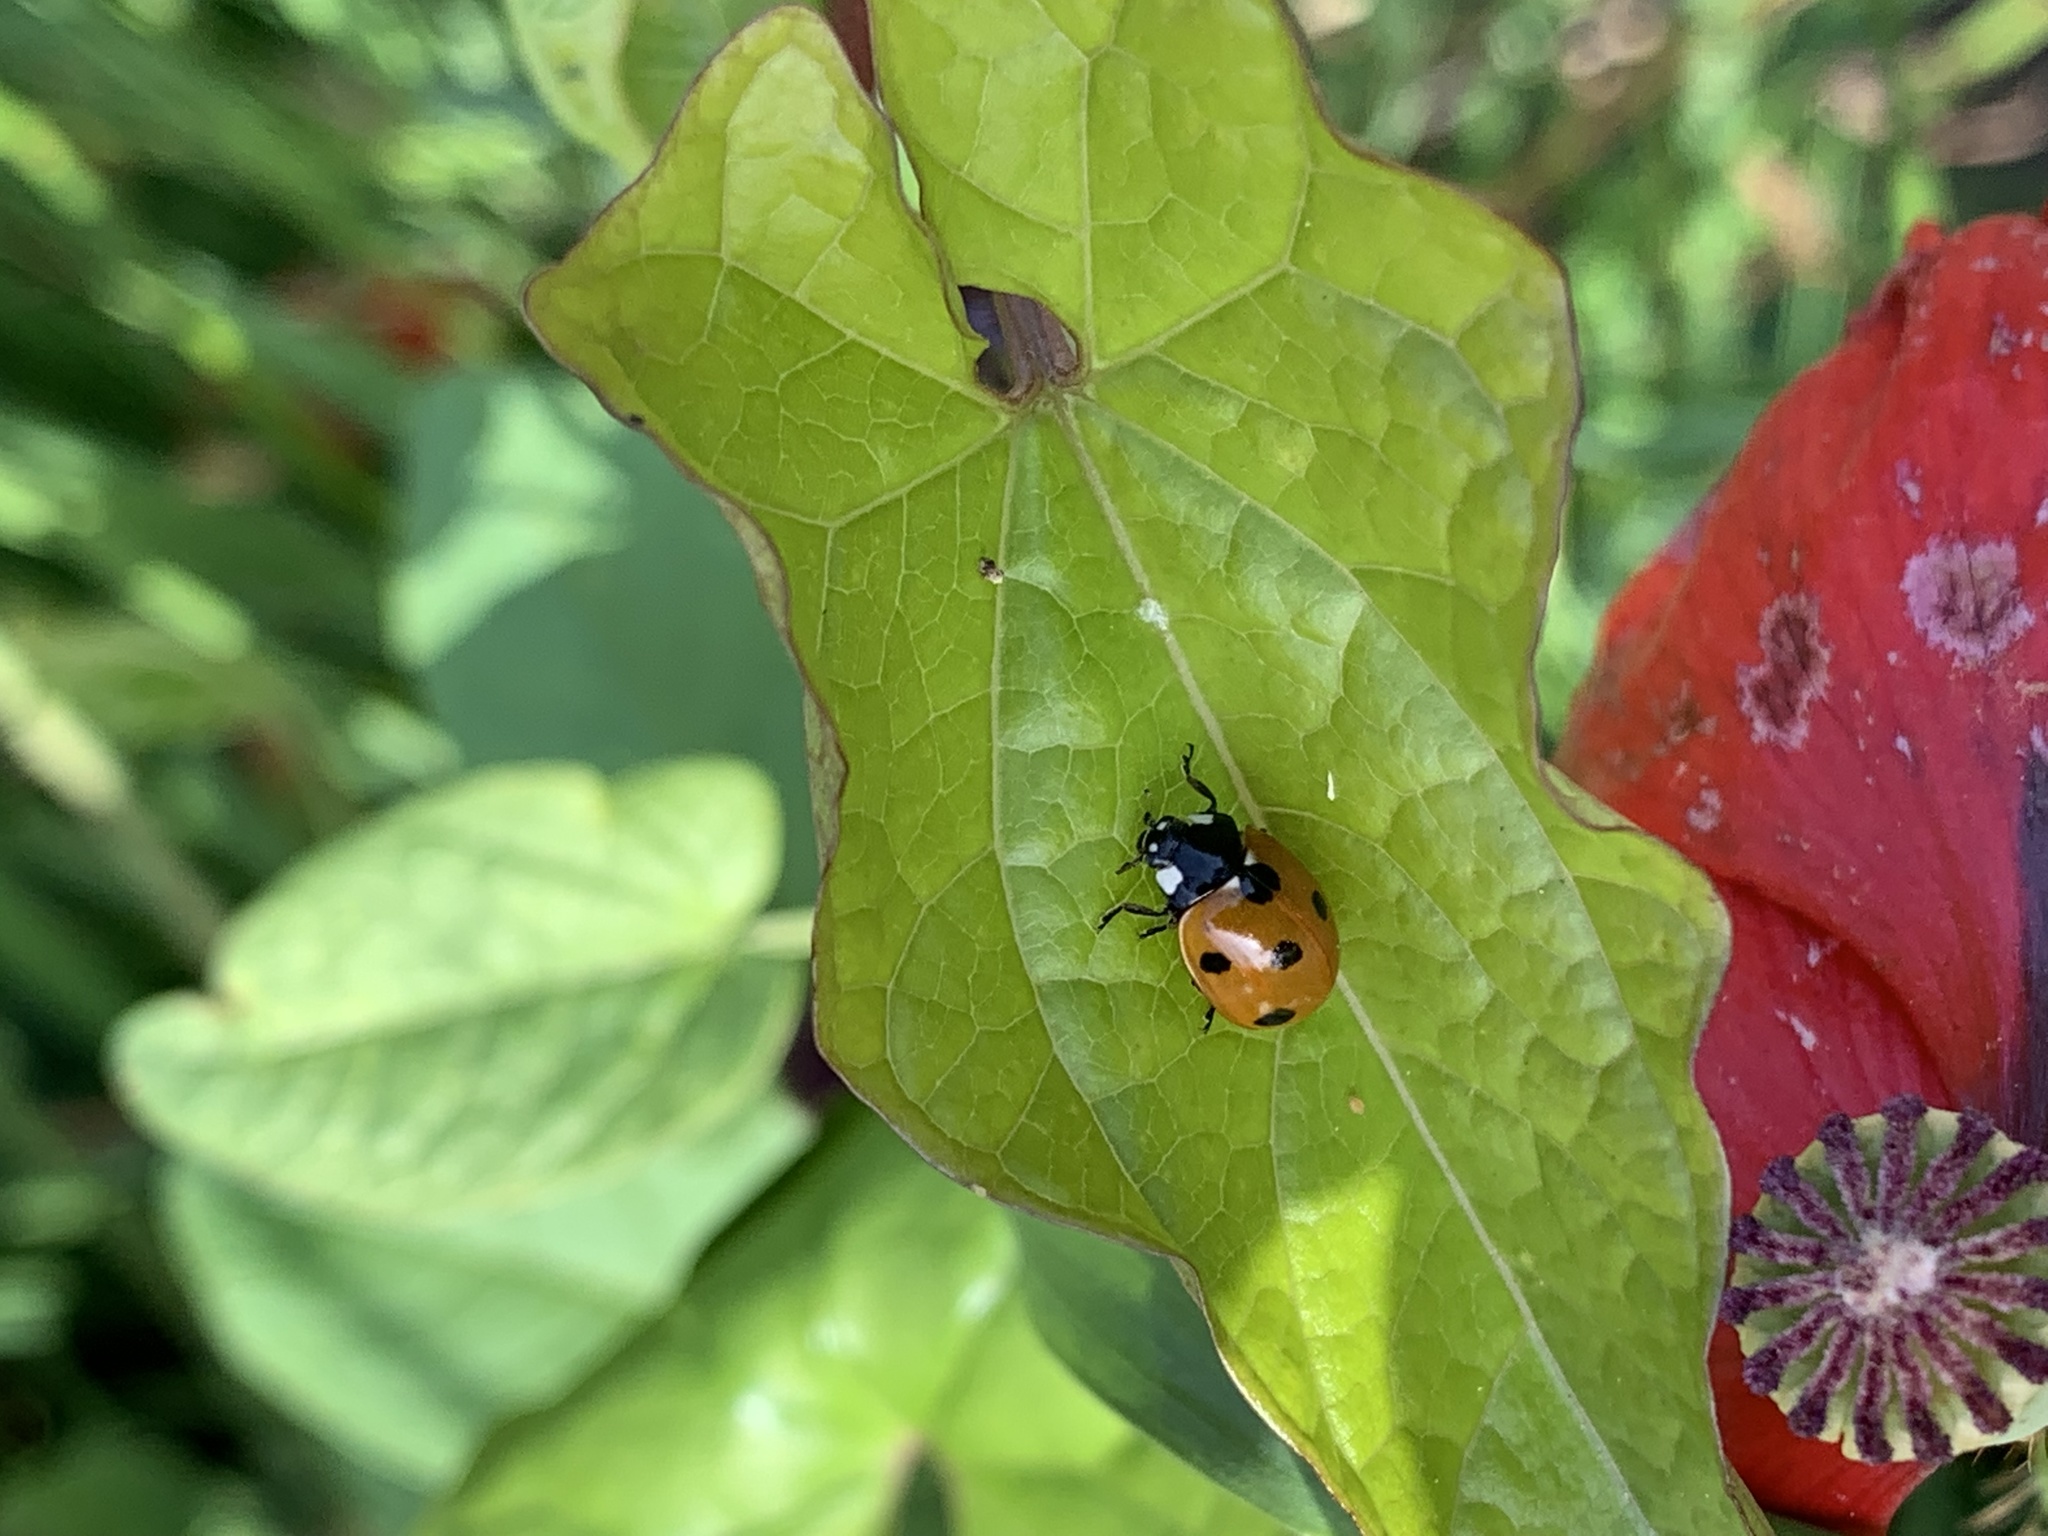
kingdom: Animalia
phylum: Arthropoda
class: Insecta
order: Coleoptera
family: Coccinellidae
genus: Coccinella
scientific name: Coccinella septempunctata
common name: Sevenspotted lady beetle
